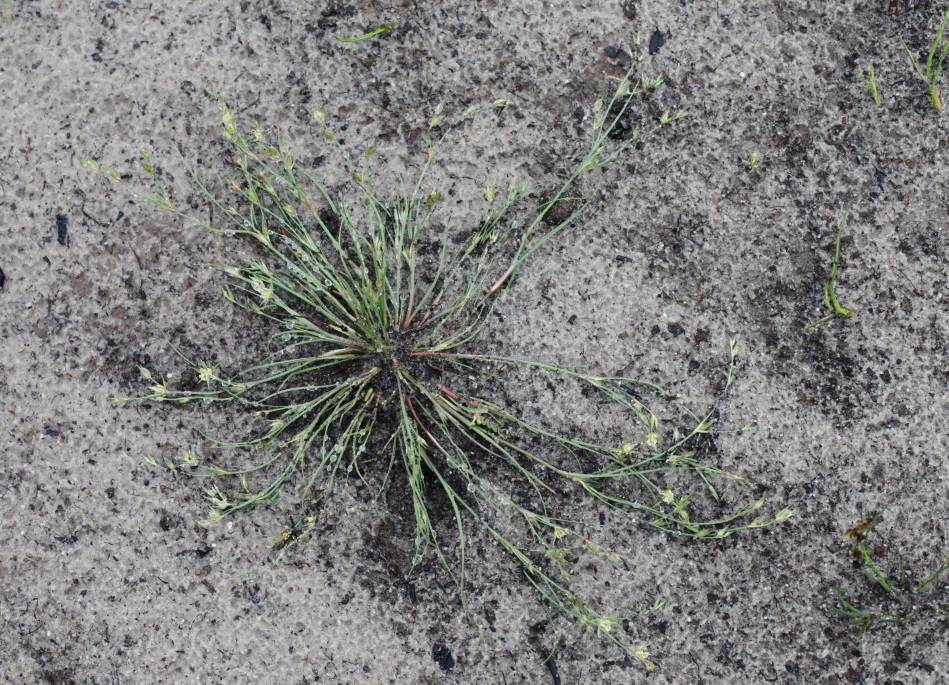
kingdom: Plantae
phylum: Tracheophyta
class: Liliopsida
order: Poales
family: Juncaceae
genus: Juncus
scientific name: Juncus bufonius
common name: Toad rush
